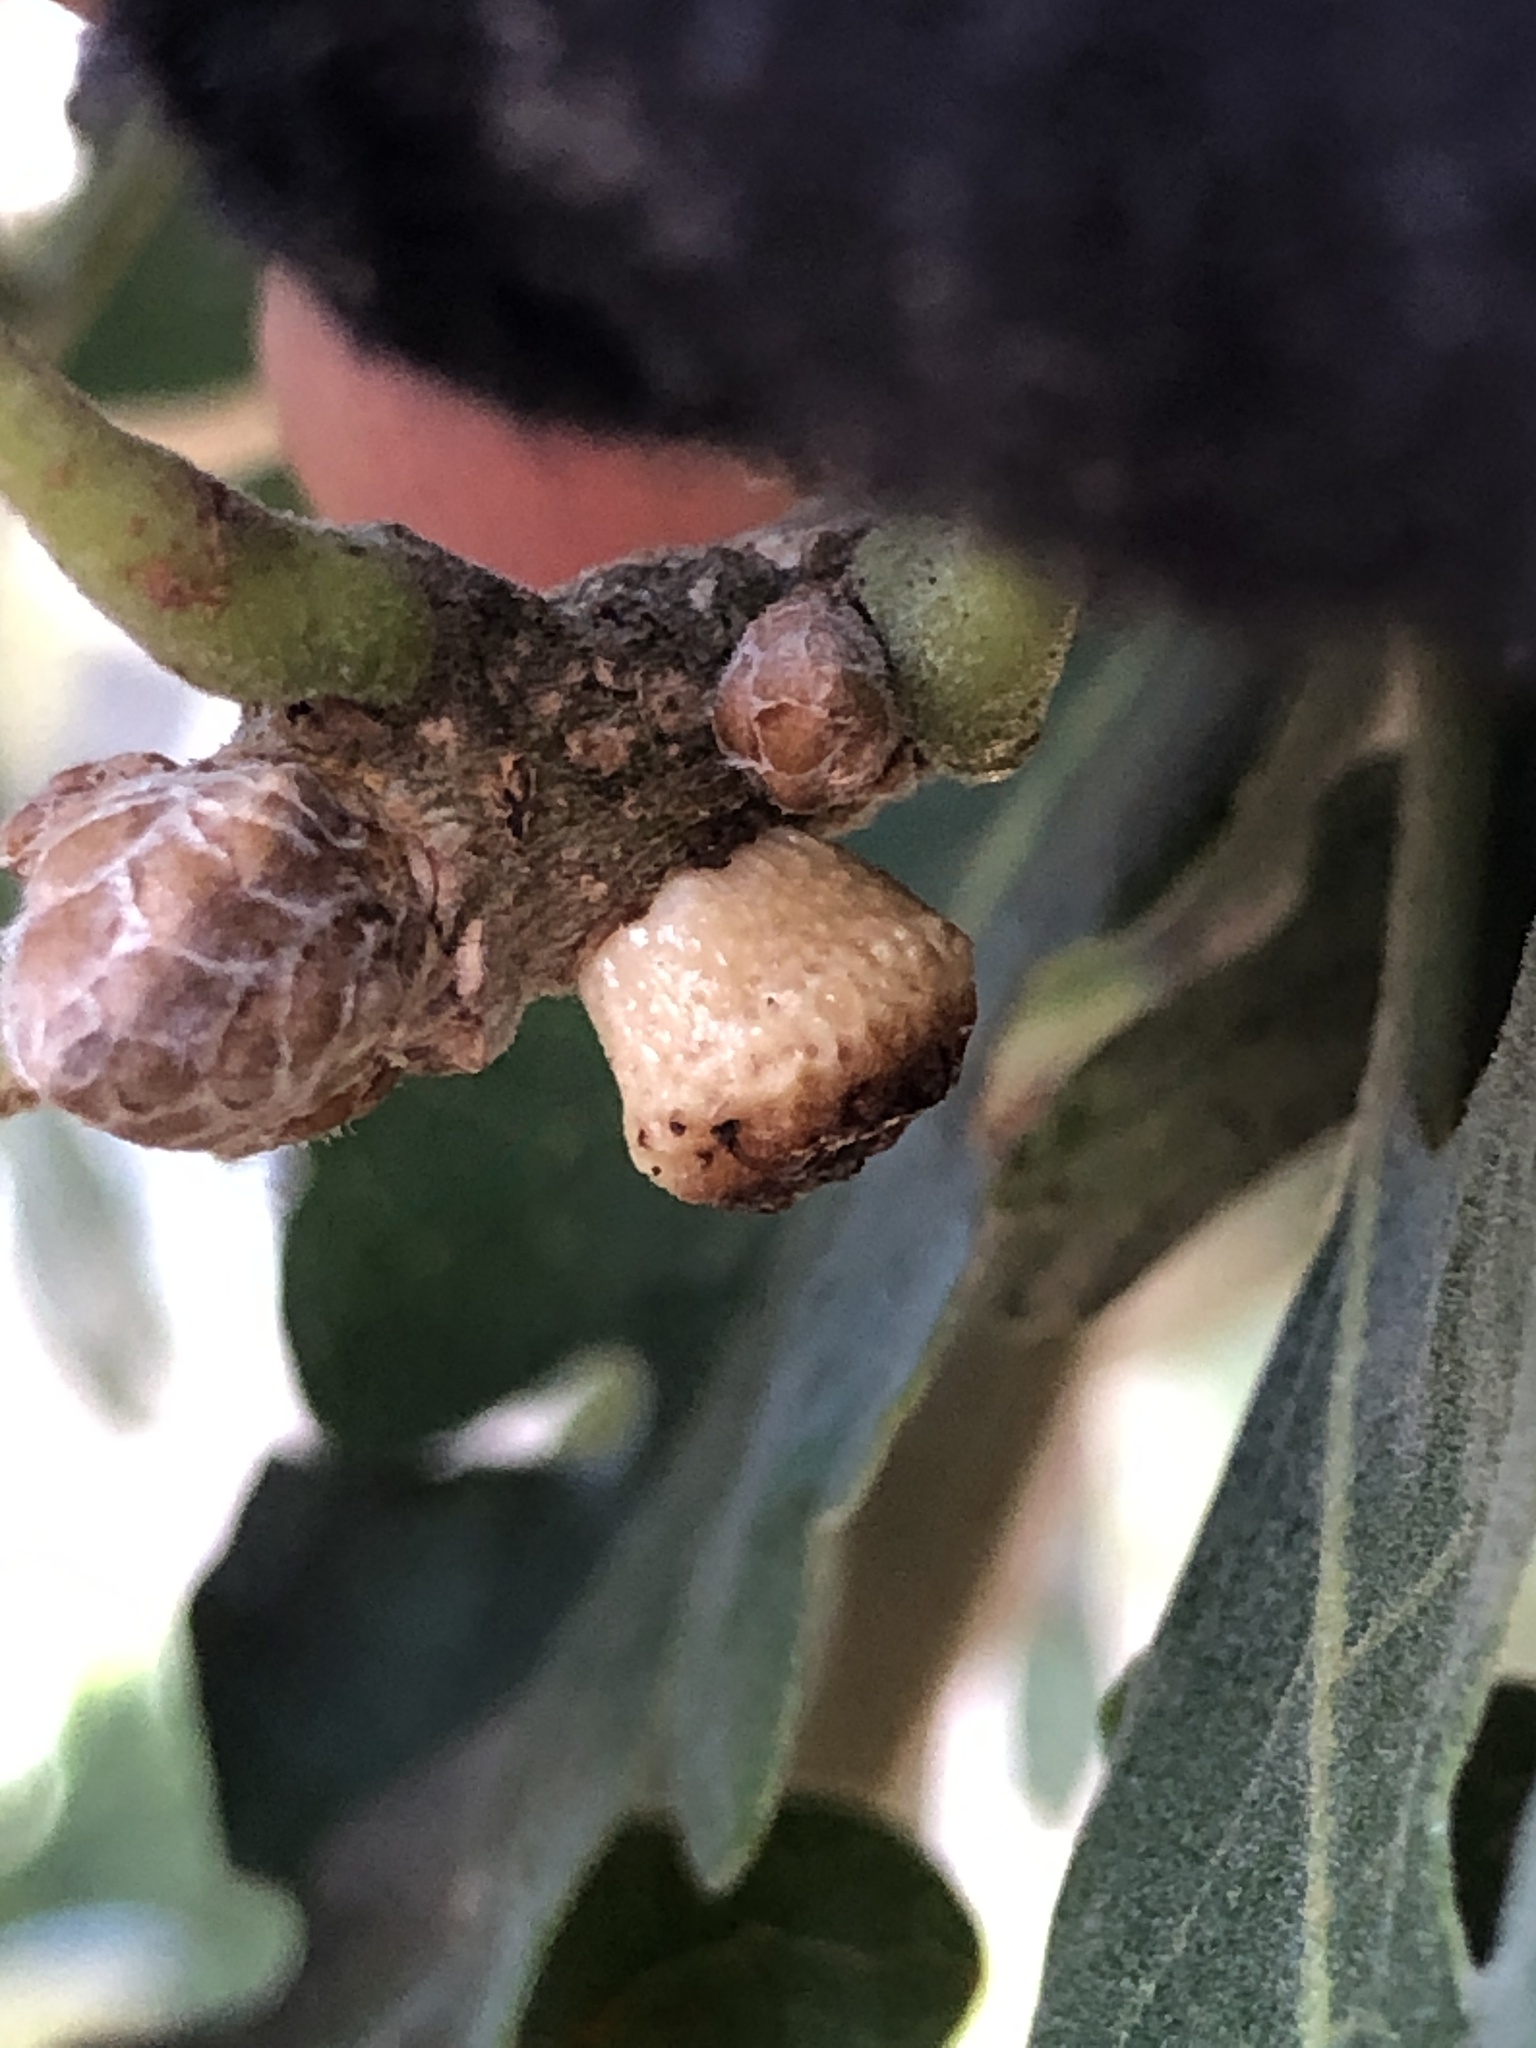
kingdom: Animalia
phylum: Arthropoda
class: Insecta
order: Hymenoptera
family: Cynipidae
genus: Disholcaspis
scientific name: Disholcaspis
